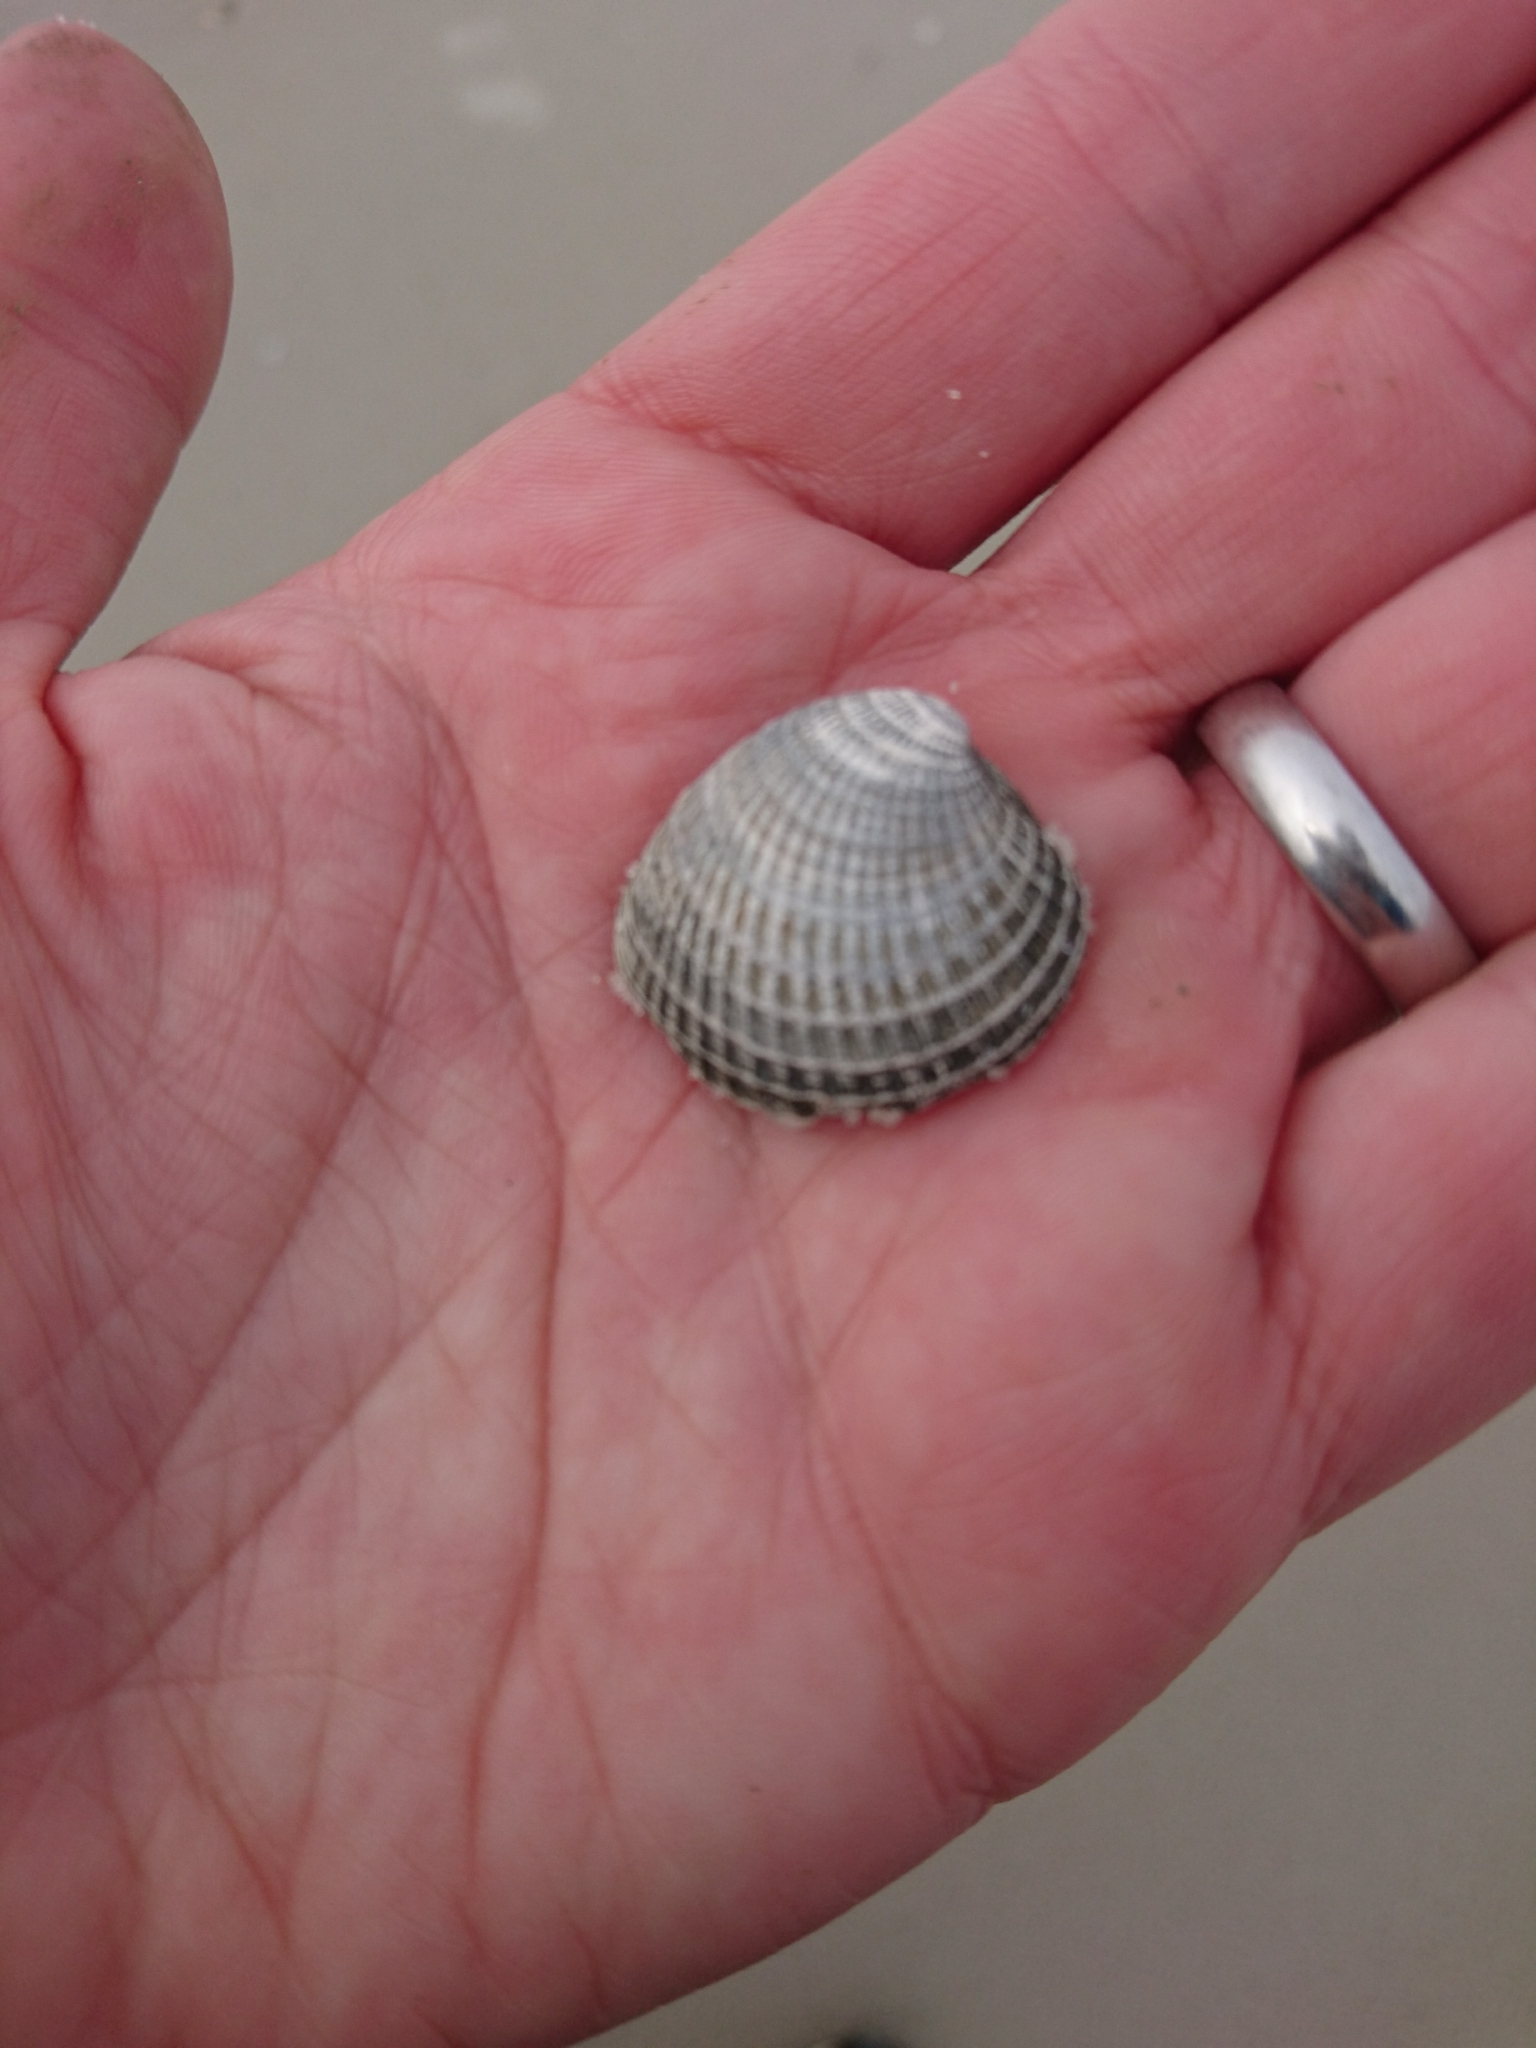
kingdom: Animalia
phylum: Mollusca
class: Bivalvia
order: Venerida
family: Veneridae
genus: Chione
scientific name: Chione elevata
